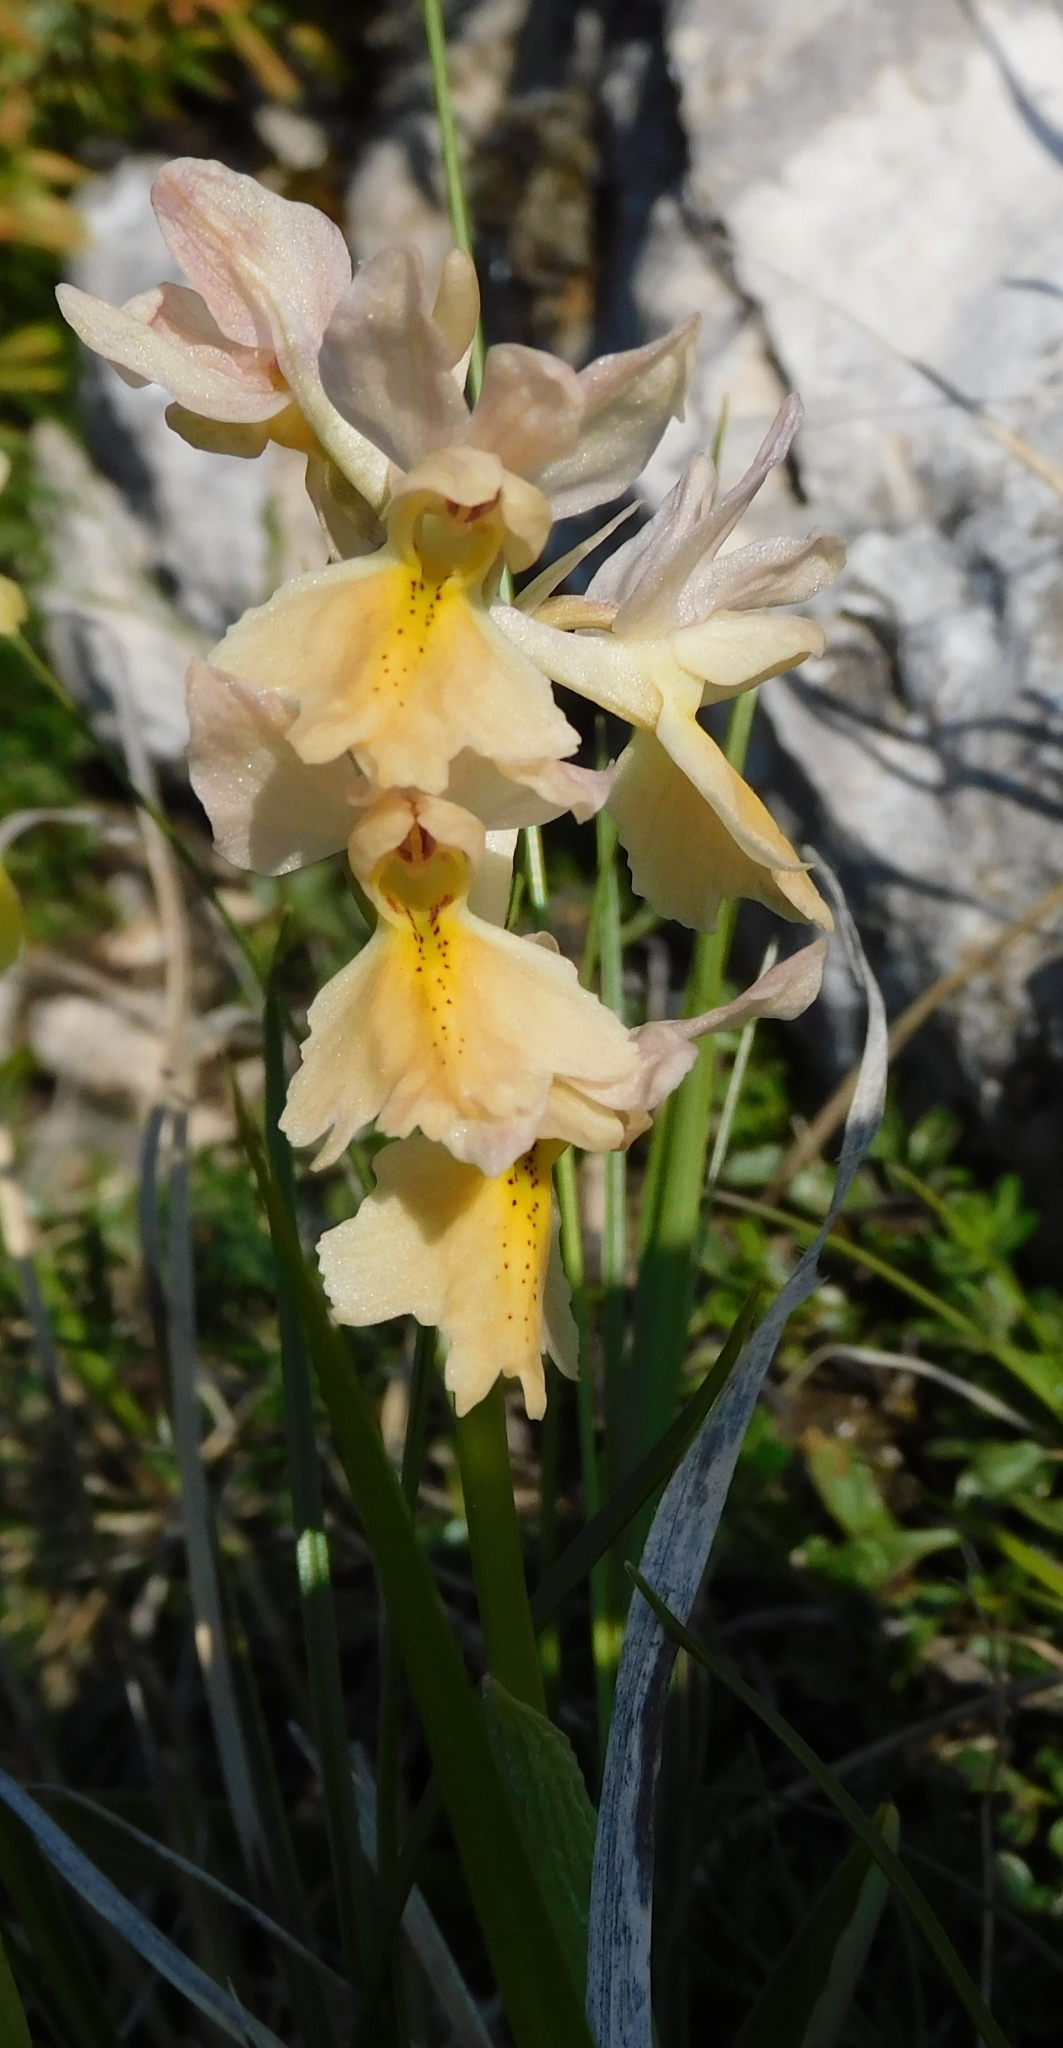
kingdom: Plantae
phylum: Tracheophyta
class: Liliopsida
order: Asparagales
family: Orchidaceae
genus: Orchis
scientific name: Orchis pauciflora
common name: Few-flowered orchid
